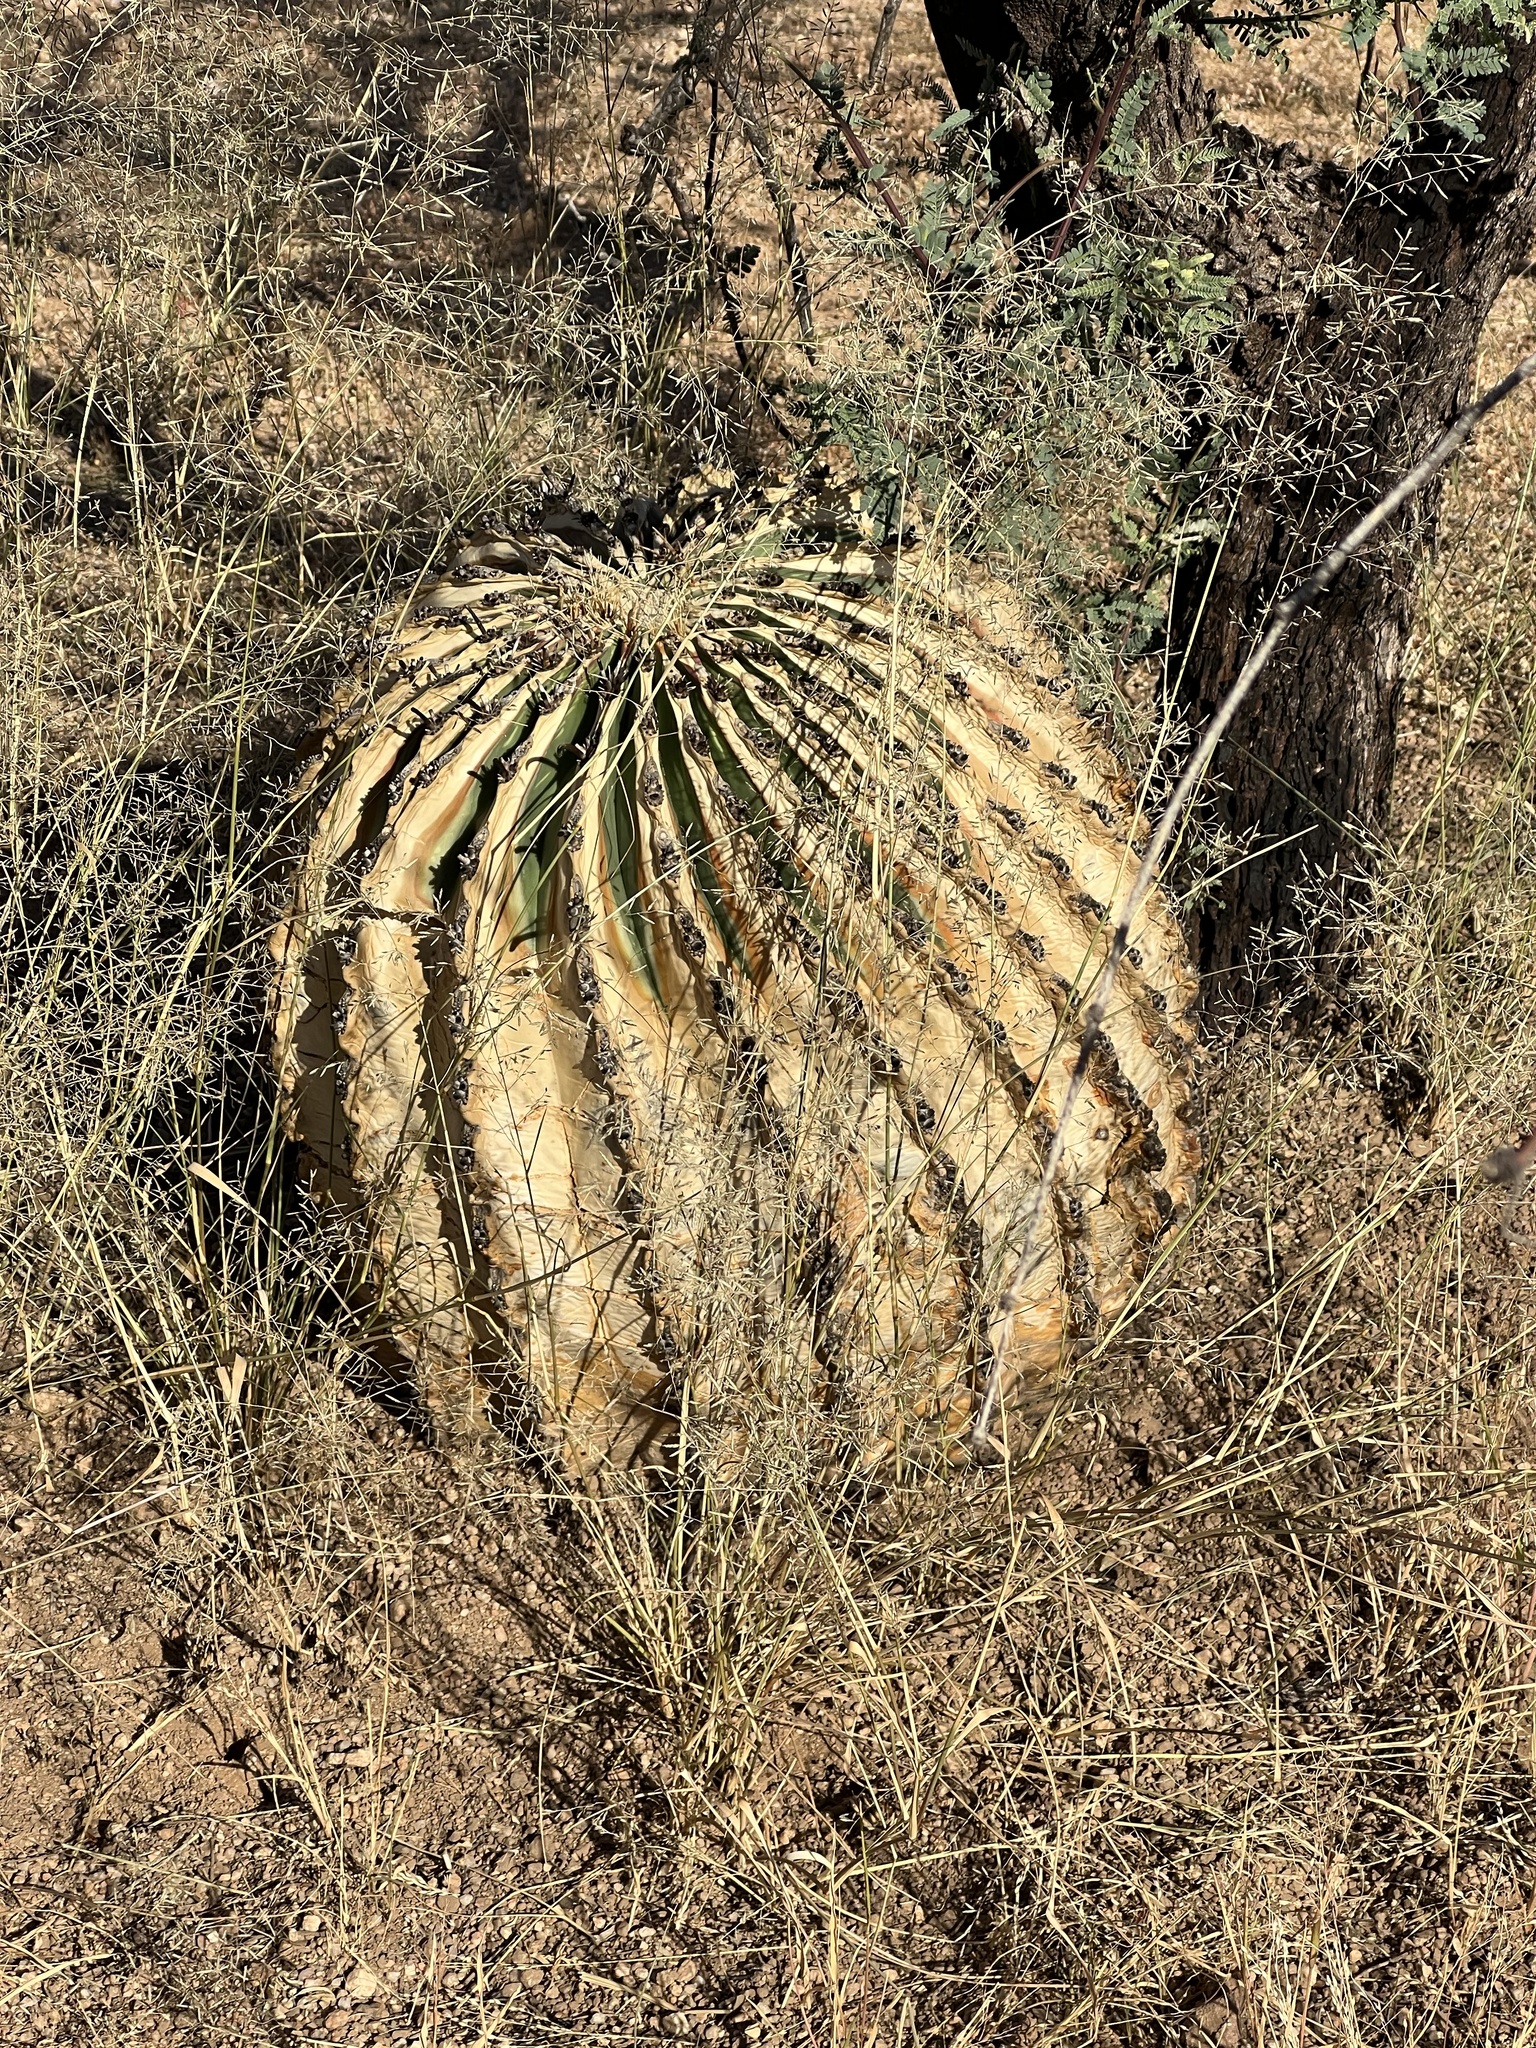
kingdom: Plantae
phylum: Tracheophyta
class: Magnoliopsida
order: Caryophyllales
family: Cactaceae
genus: Ferocactus
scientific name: Ferocactus wislizeni
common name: Candy barrel cactus
